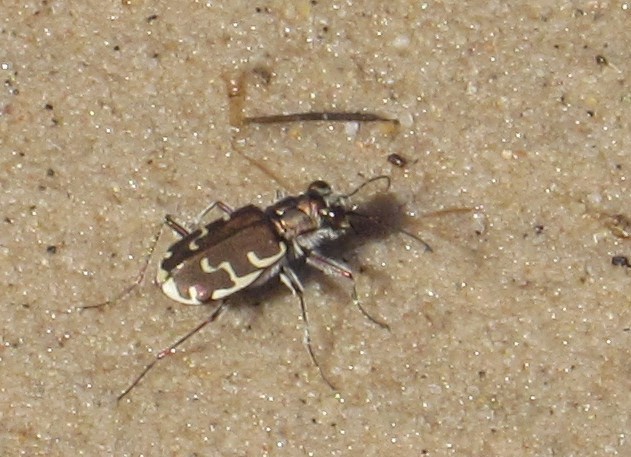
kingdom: Animalia
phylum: Arthropoda
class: Insecta
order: Coleoptera
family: Carabidae
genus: Cicindela
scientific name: Cicindela repanda
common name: Bronzed tiger beetle
